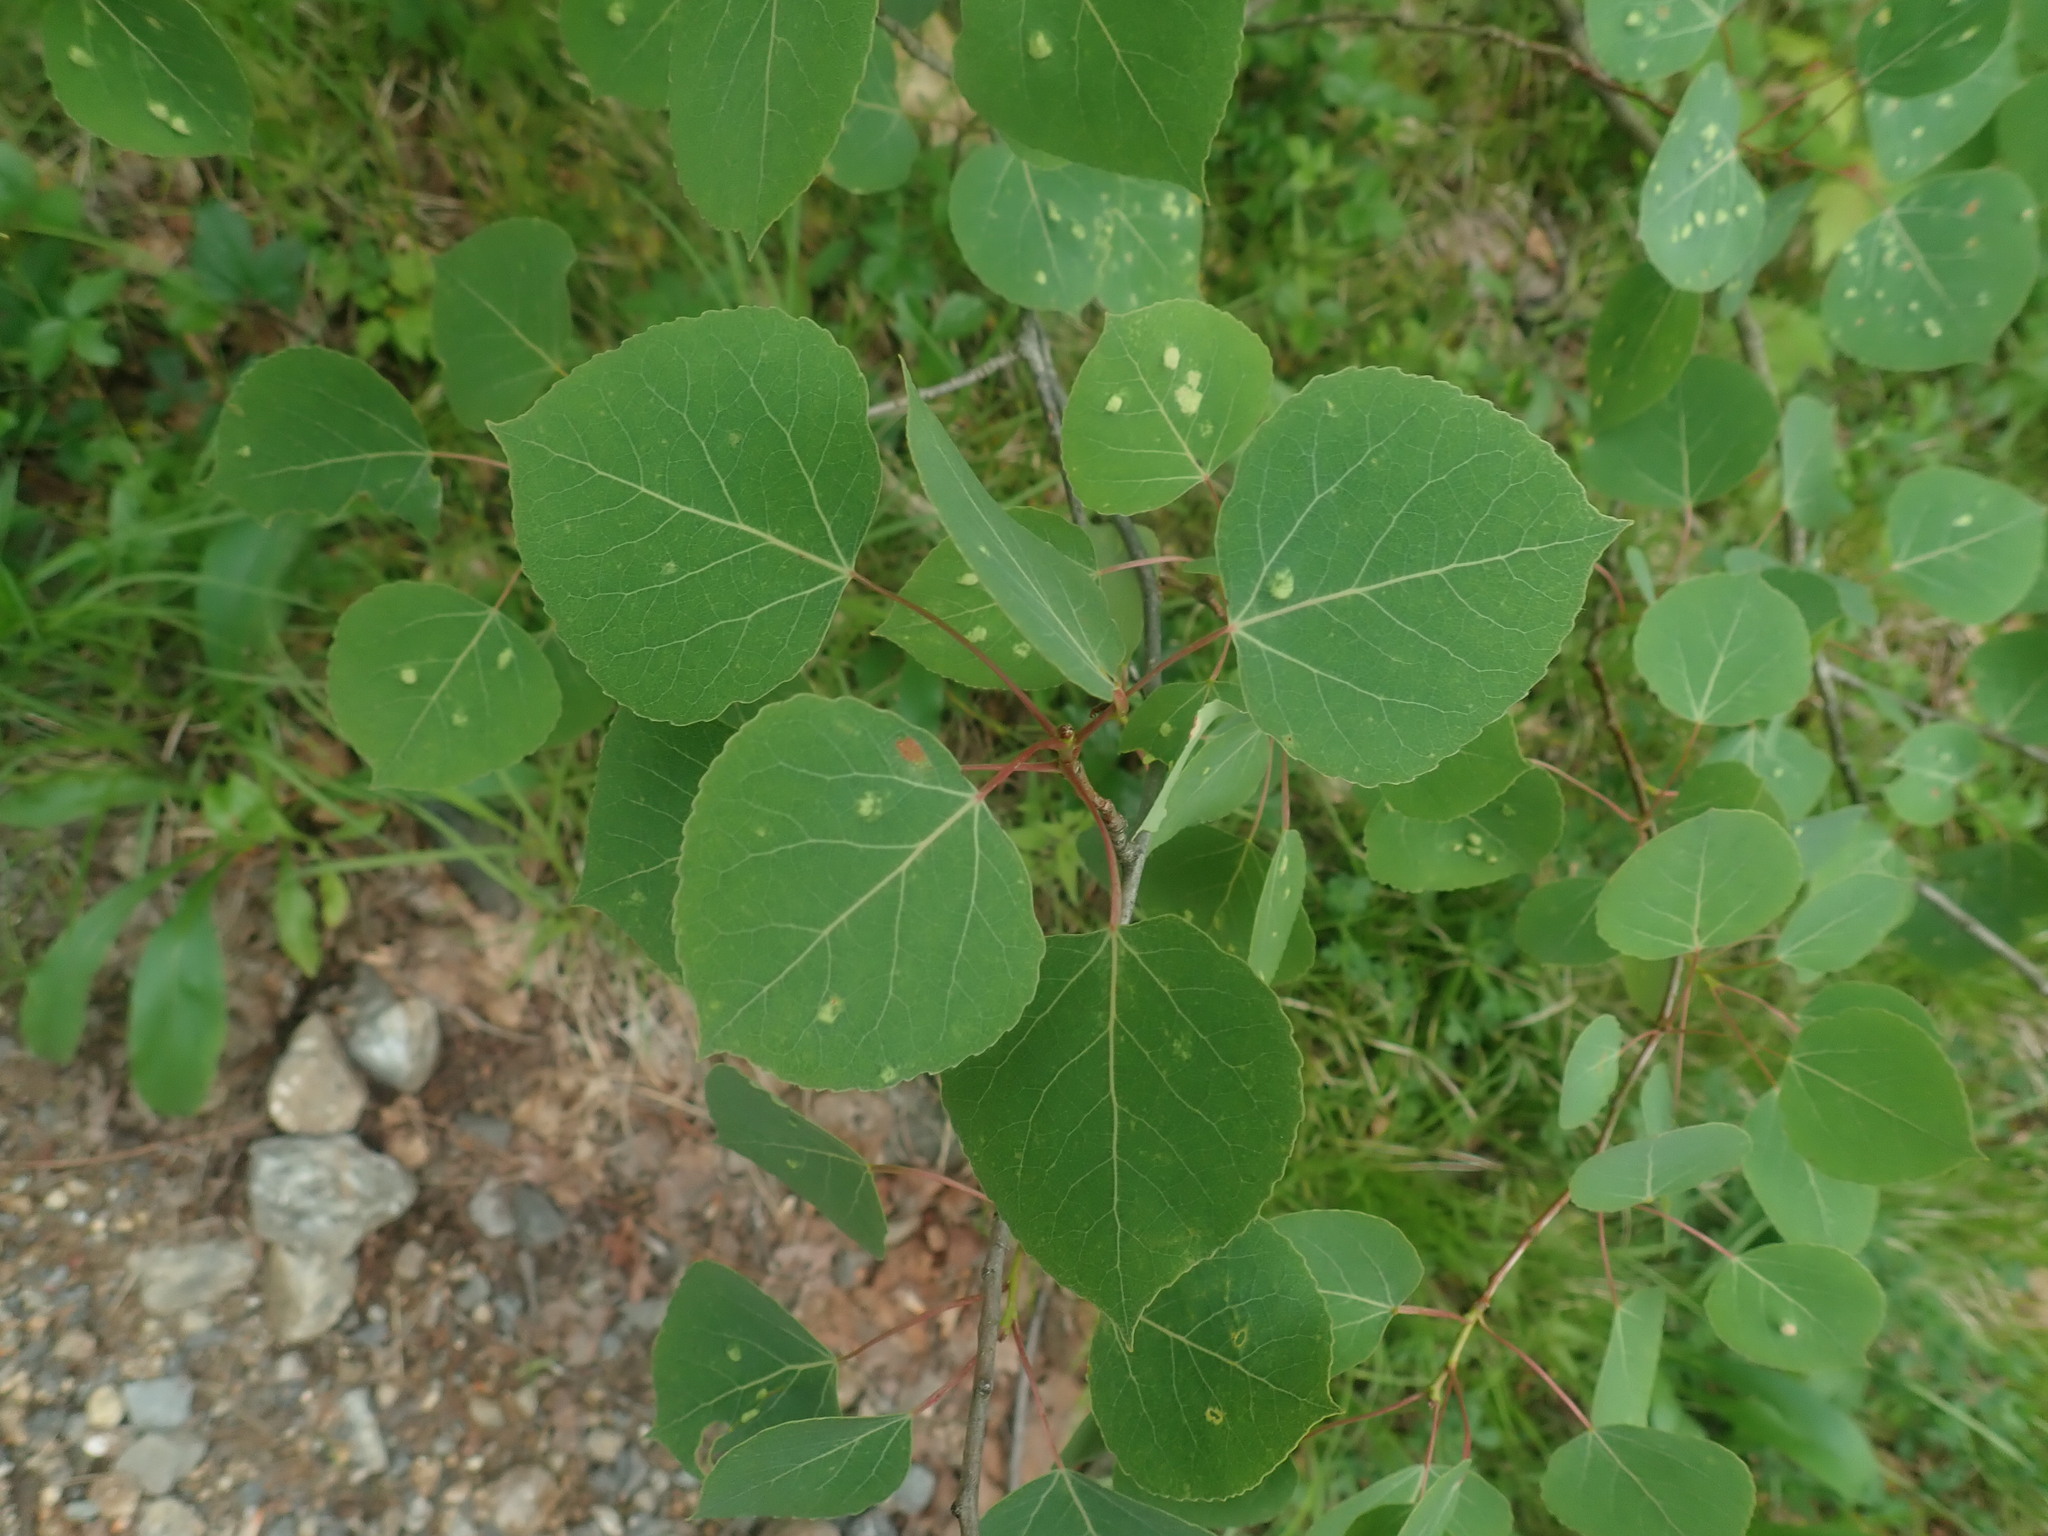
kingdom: Plantae
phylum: Tracheophyta
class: Magnoliopsida
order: Malpighiales
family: Salicaceae
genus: Populus
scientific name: Populus tremuloides
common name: Quaking aspen
